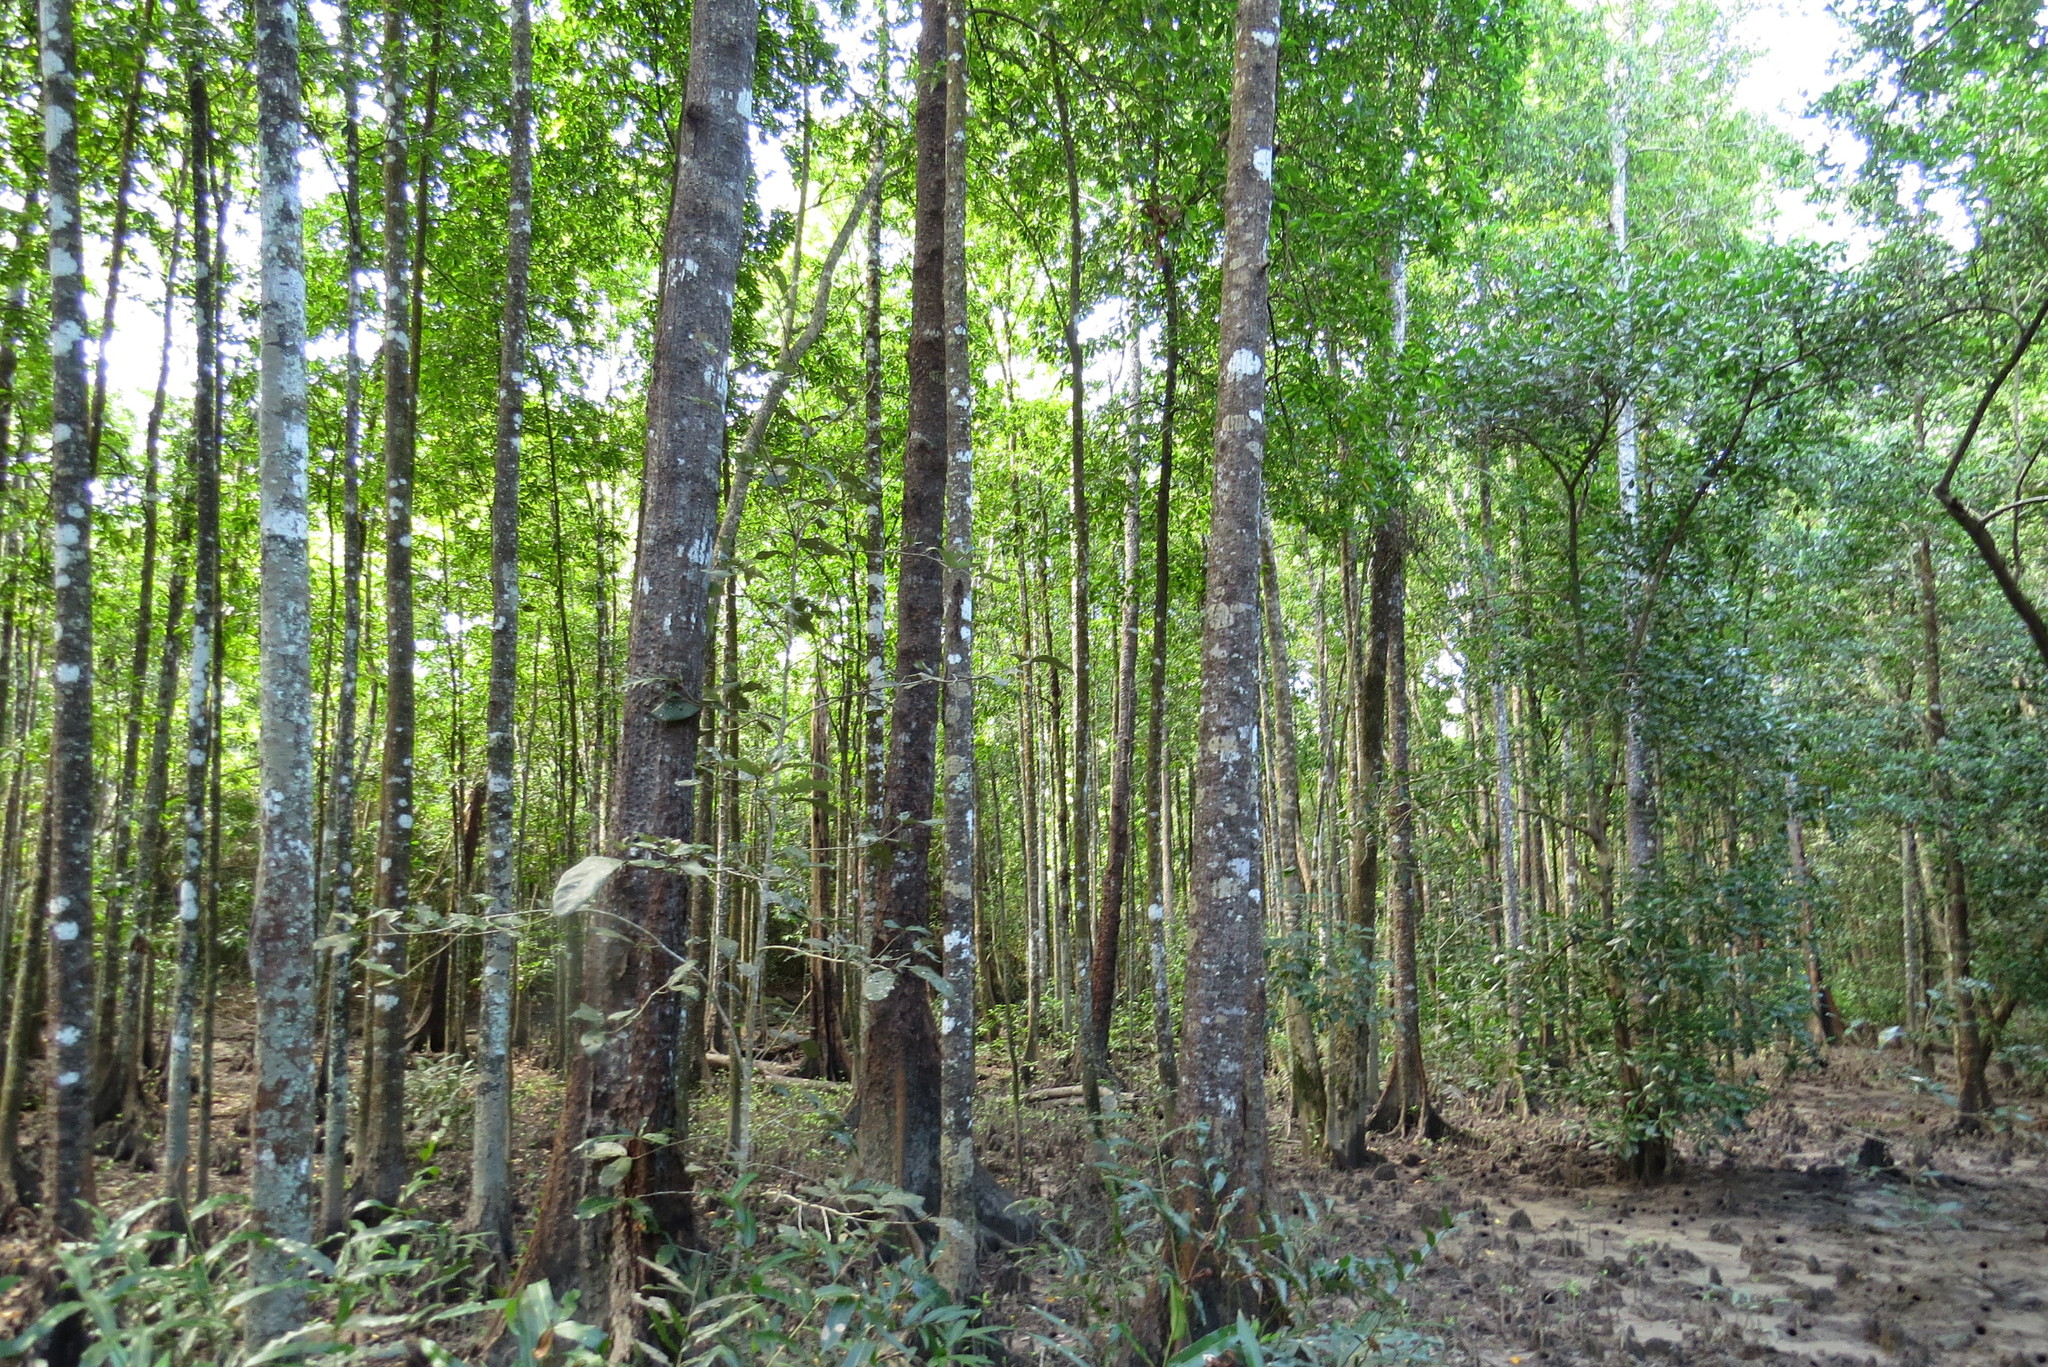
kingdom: Plantae
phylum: Tracheophyta
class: Magnoliopsida
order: Malpighiales
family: Rhizophoraceae
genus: Bruguiera
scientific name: Bruguiera parviflora
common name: Smallflower bruguiera
